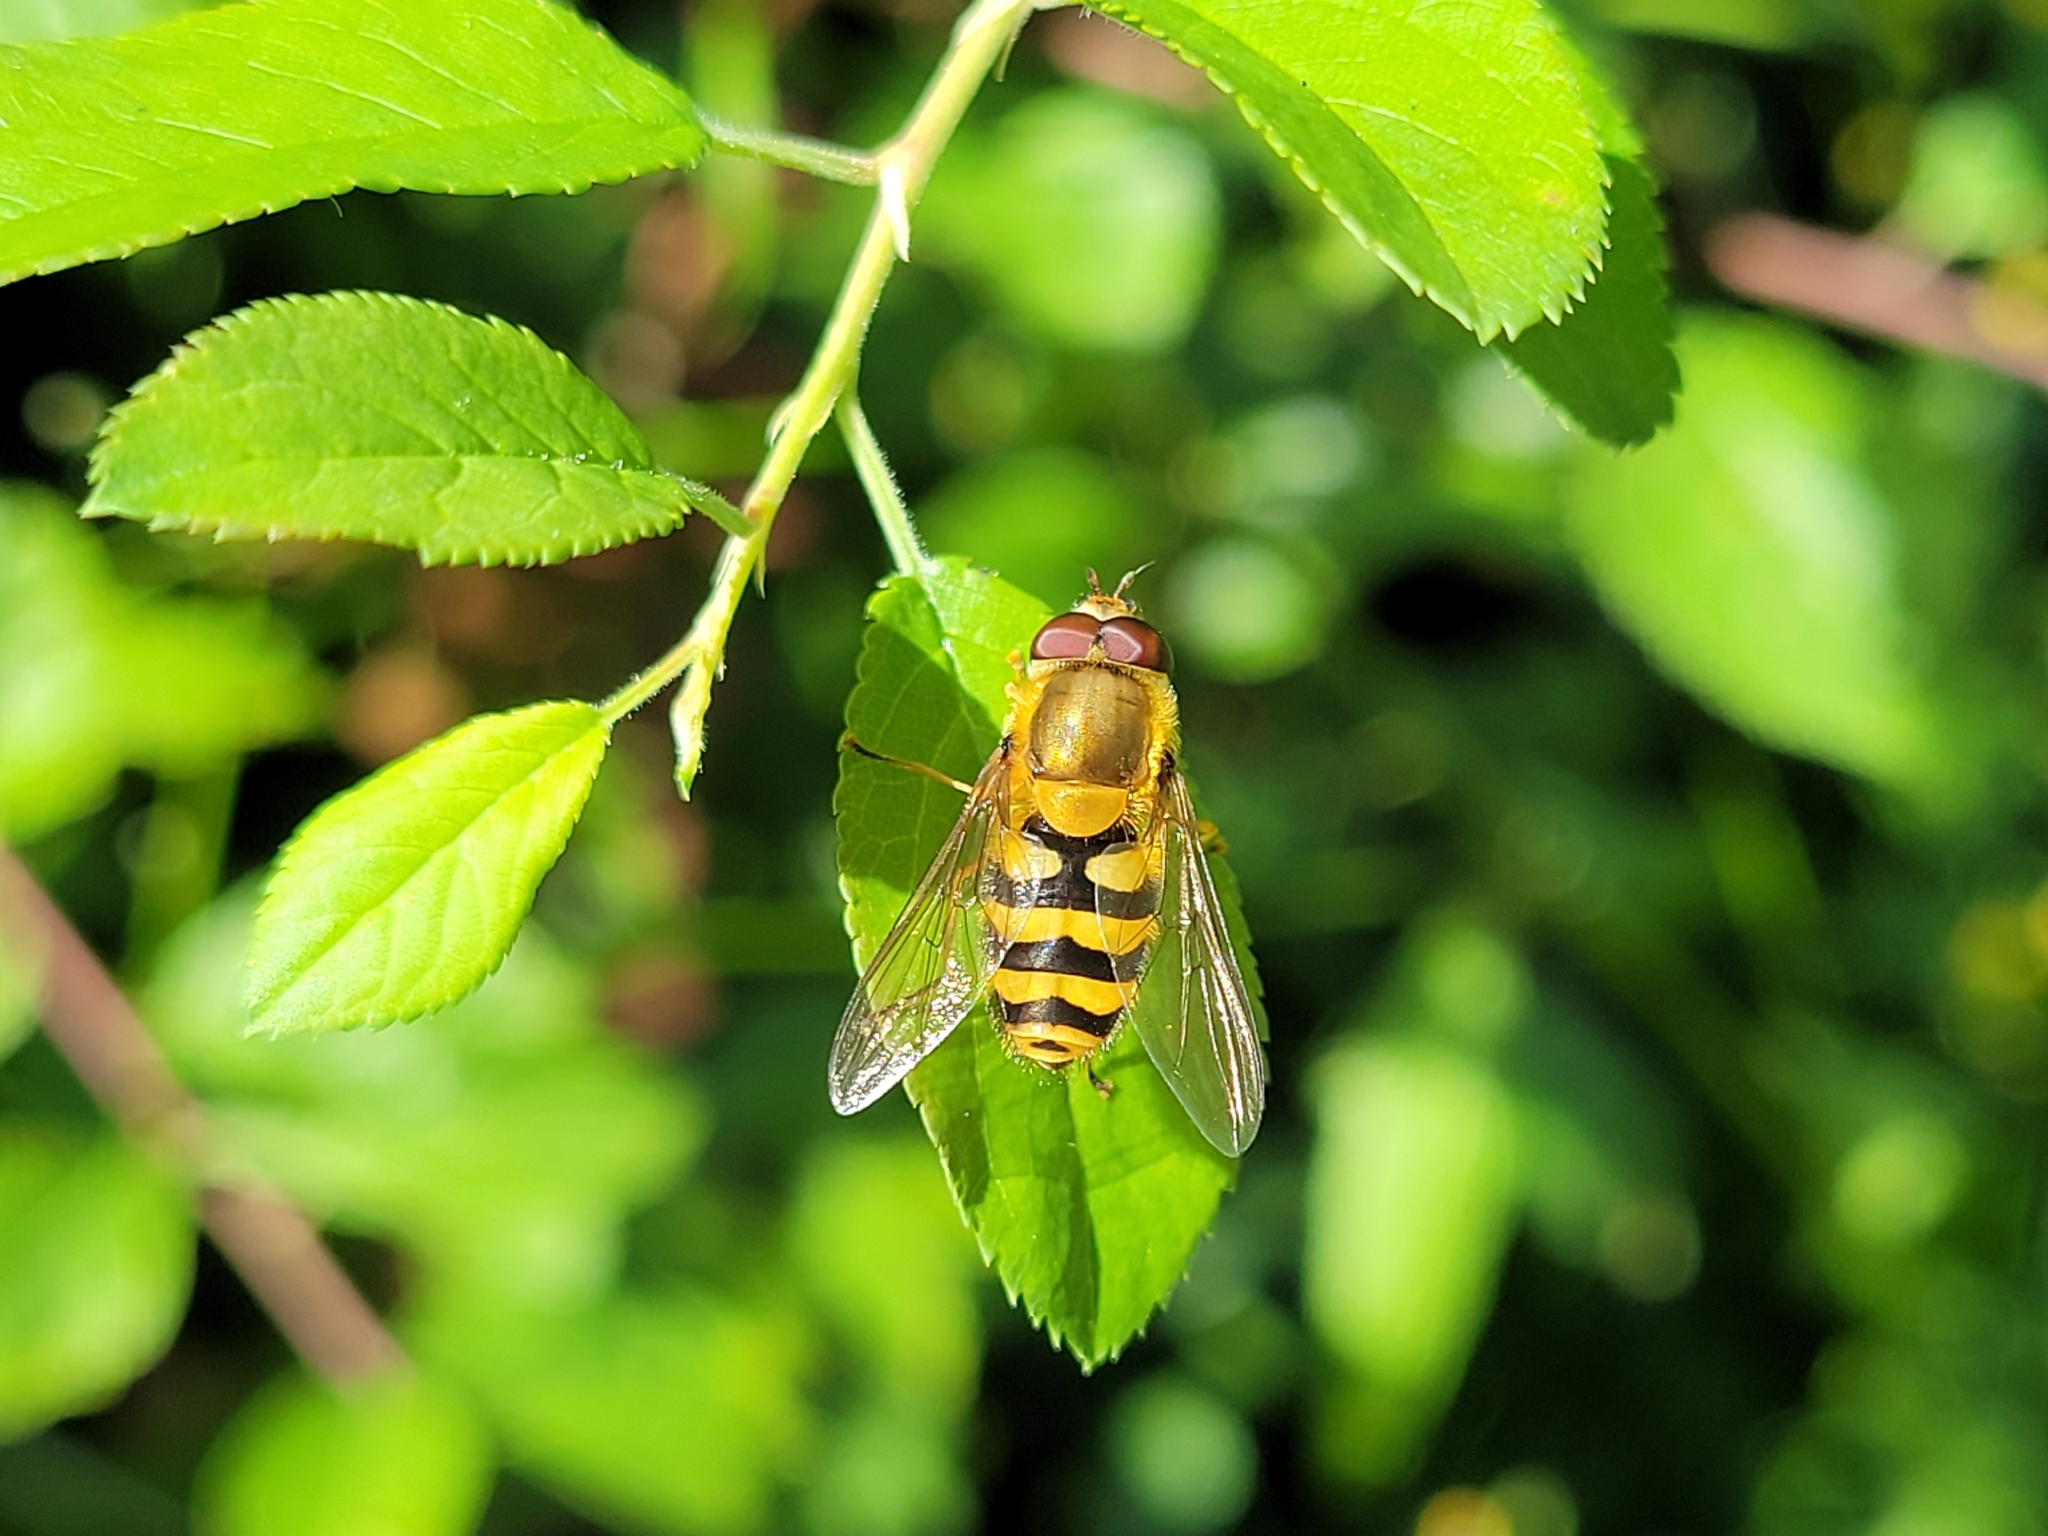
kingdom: Animalia
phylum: Arthropoda
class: Insecta
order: Diptera
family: Syrphidae
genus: Syrphus
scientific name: Syrphus ribesii
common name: Common flower fly
